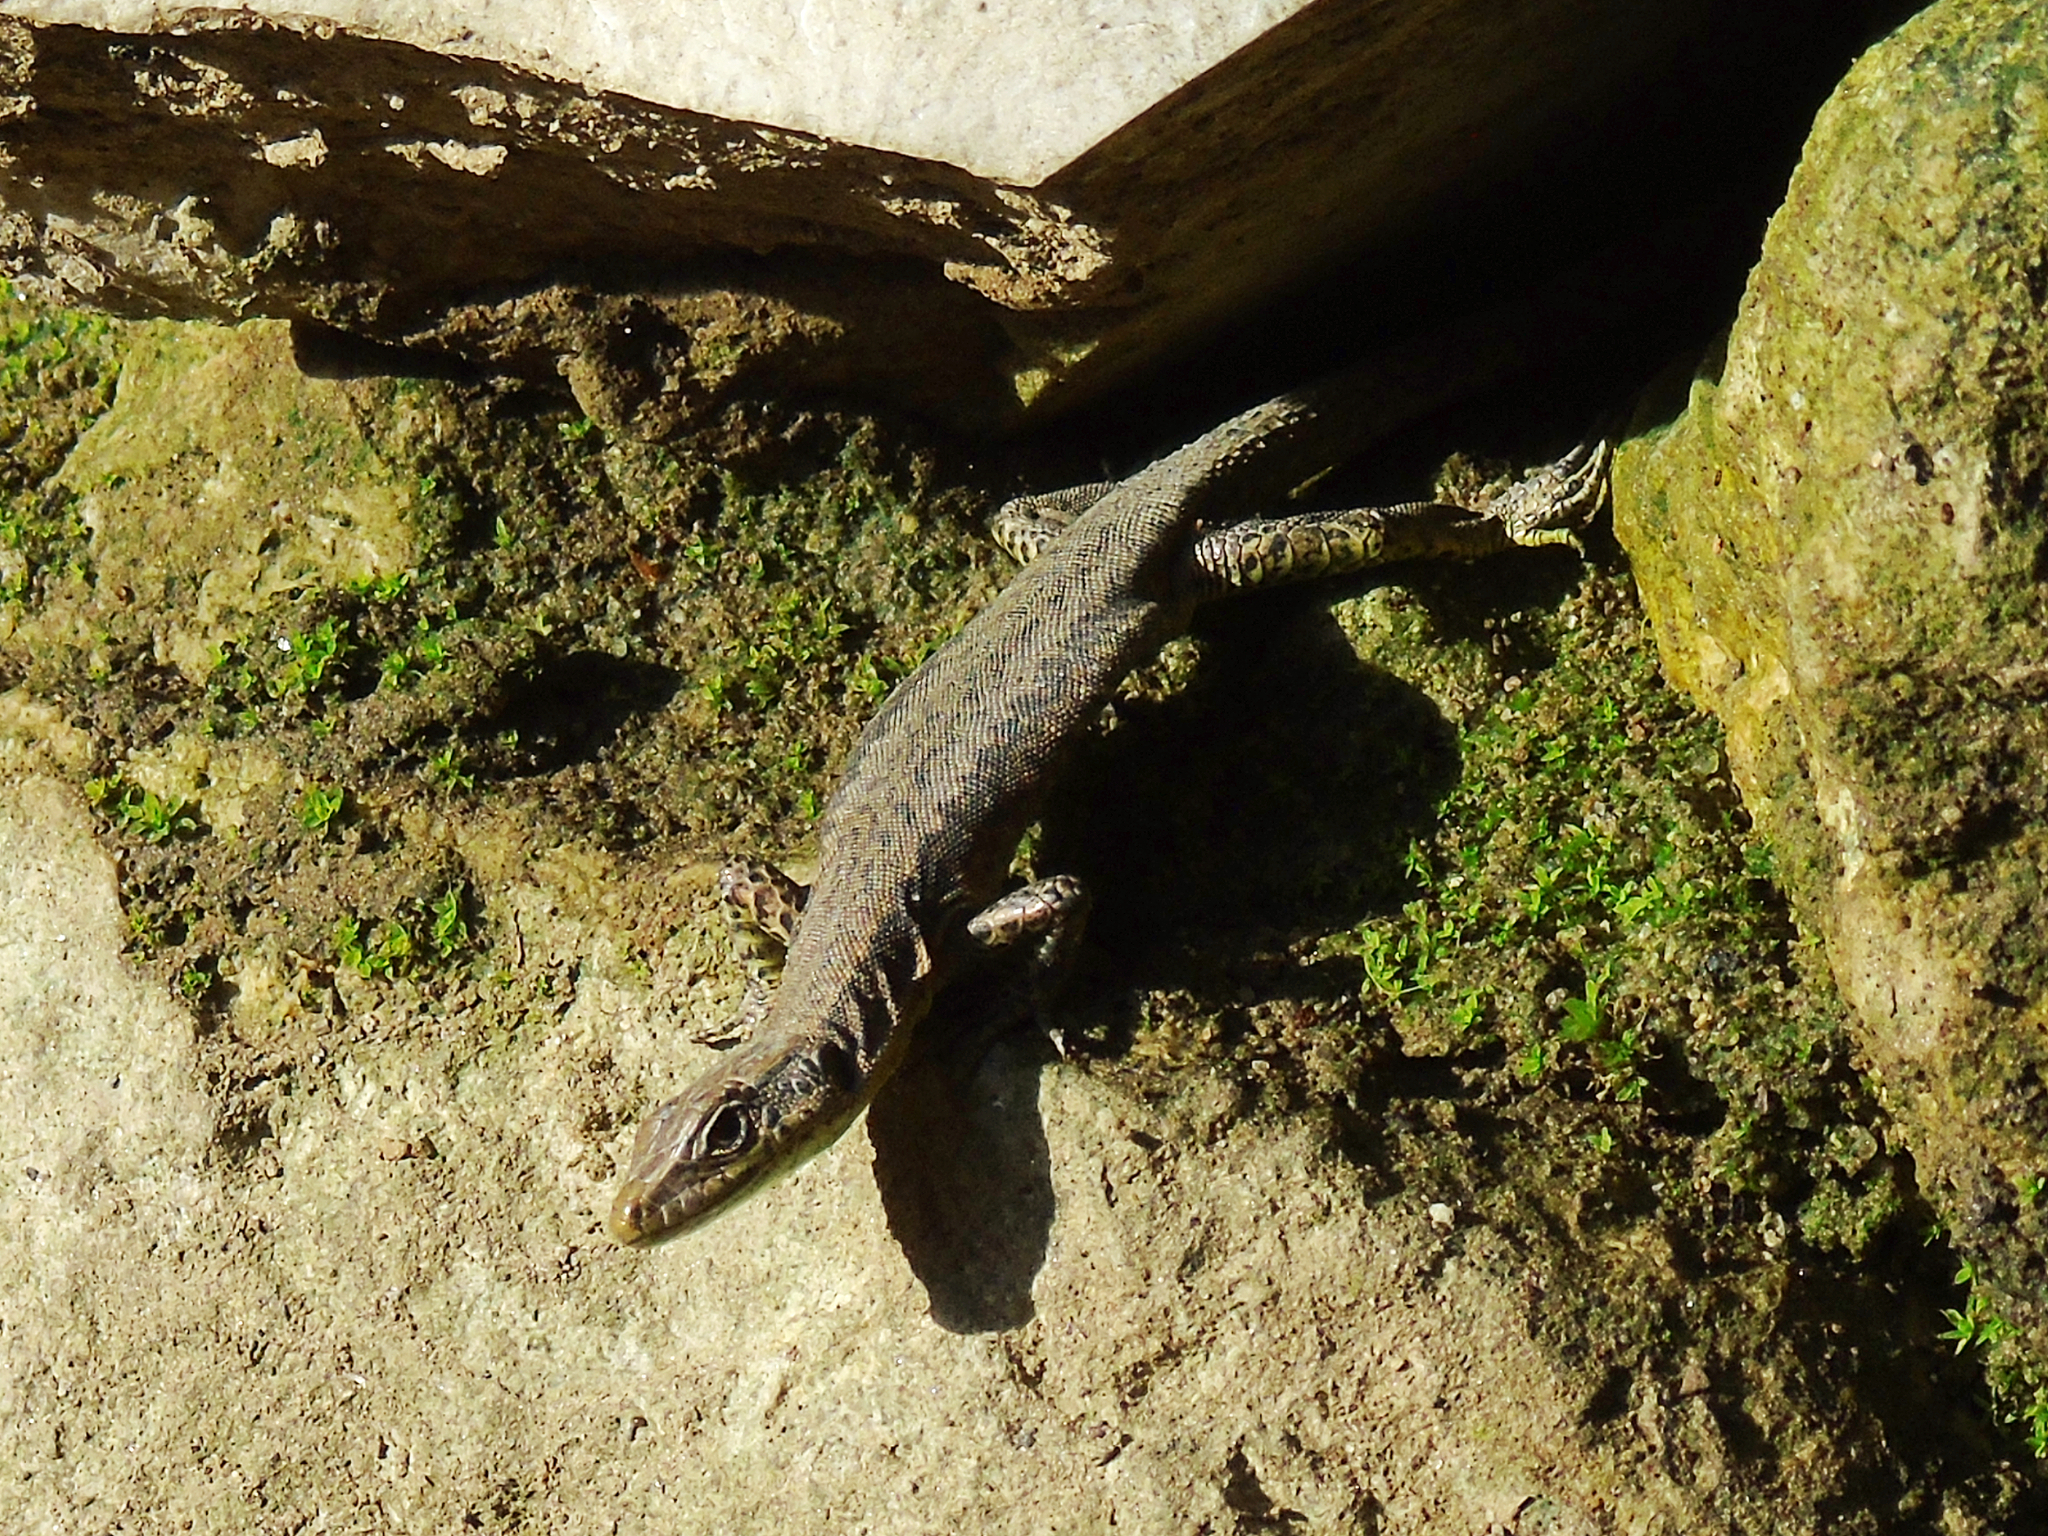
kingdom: Animalia
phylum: Chordata
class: Squamata
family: Lacertidae
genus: Darevskia
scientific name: Darevskia rudis
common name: Spiny-tailed lizard
